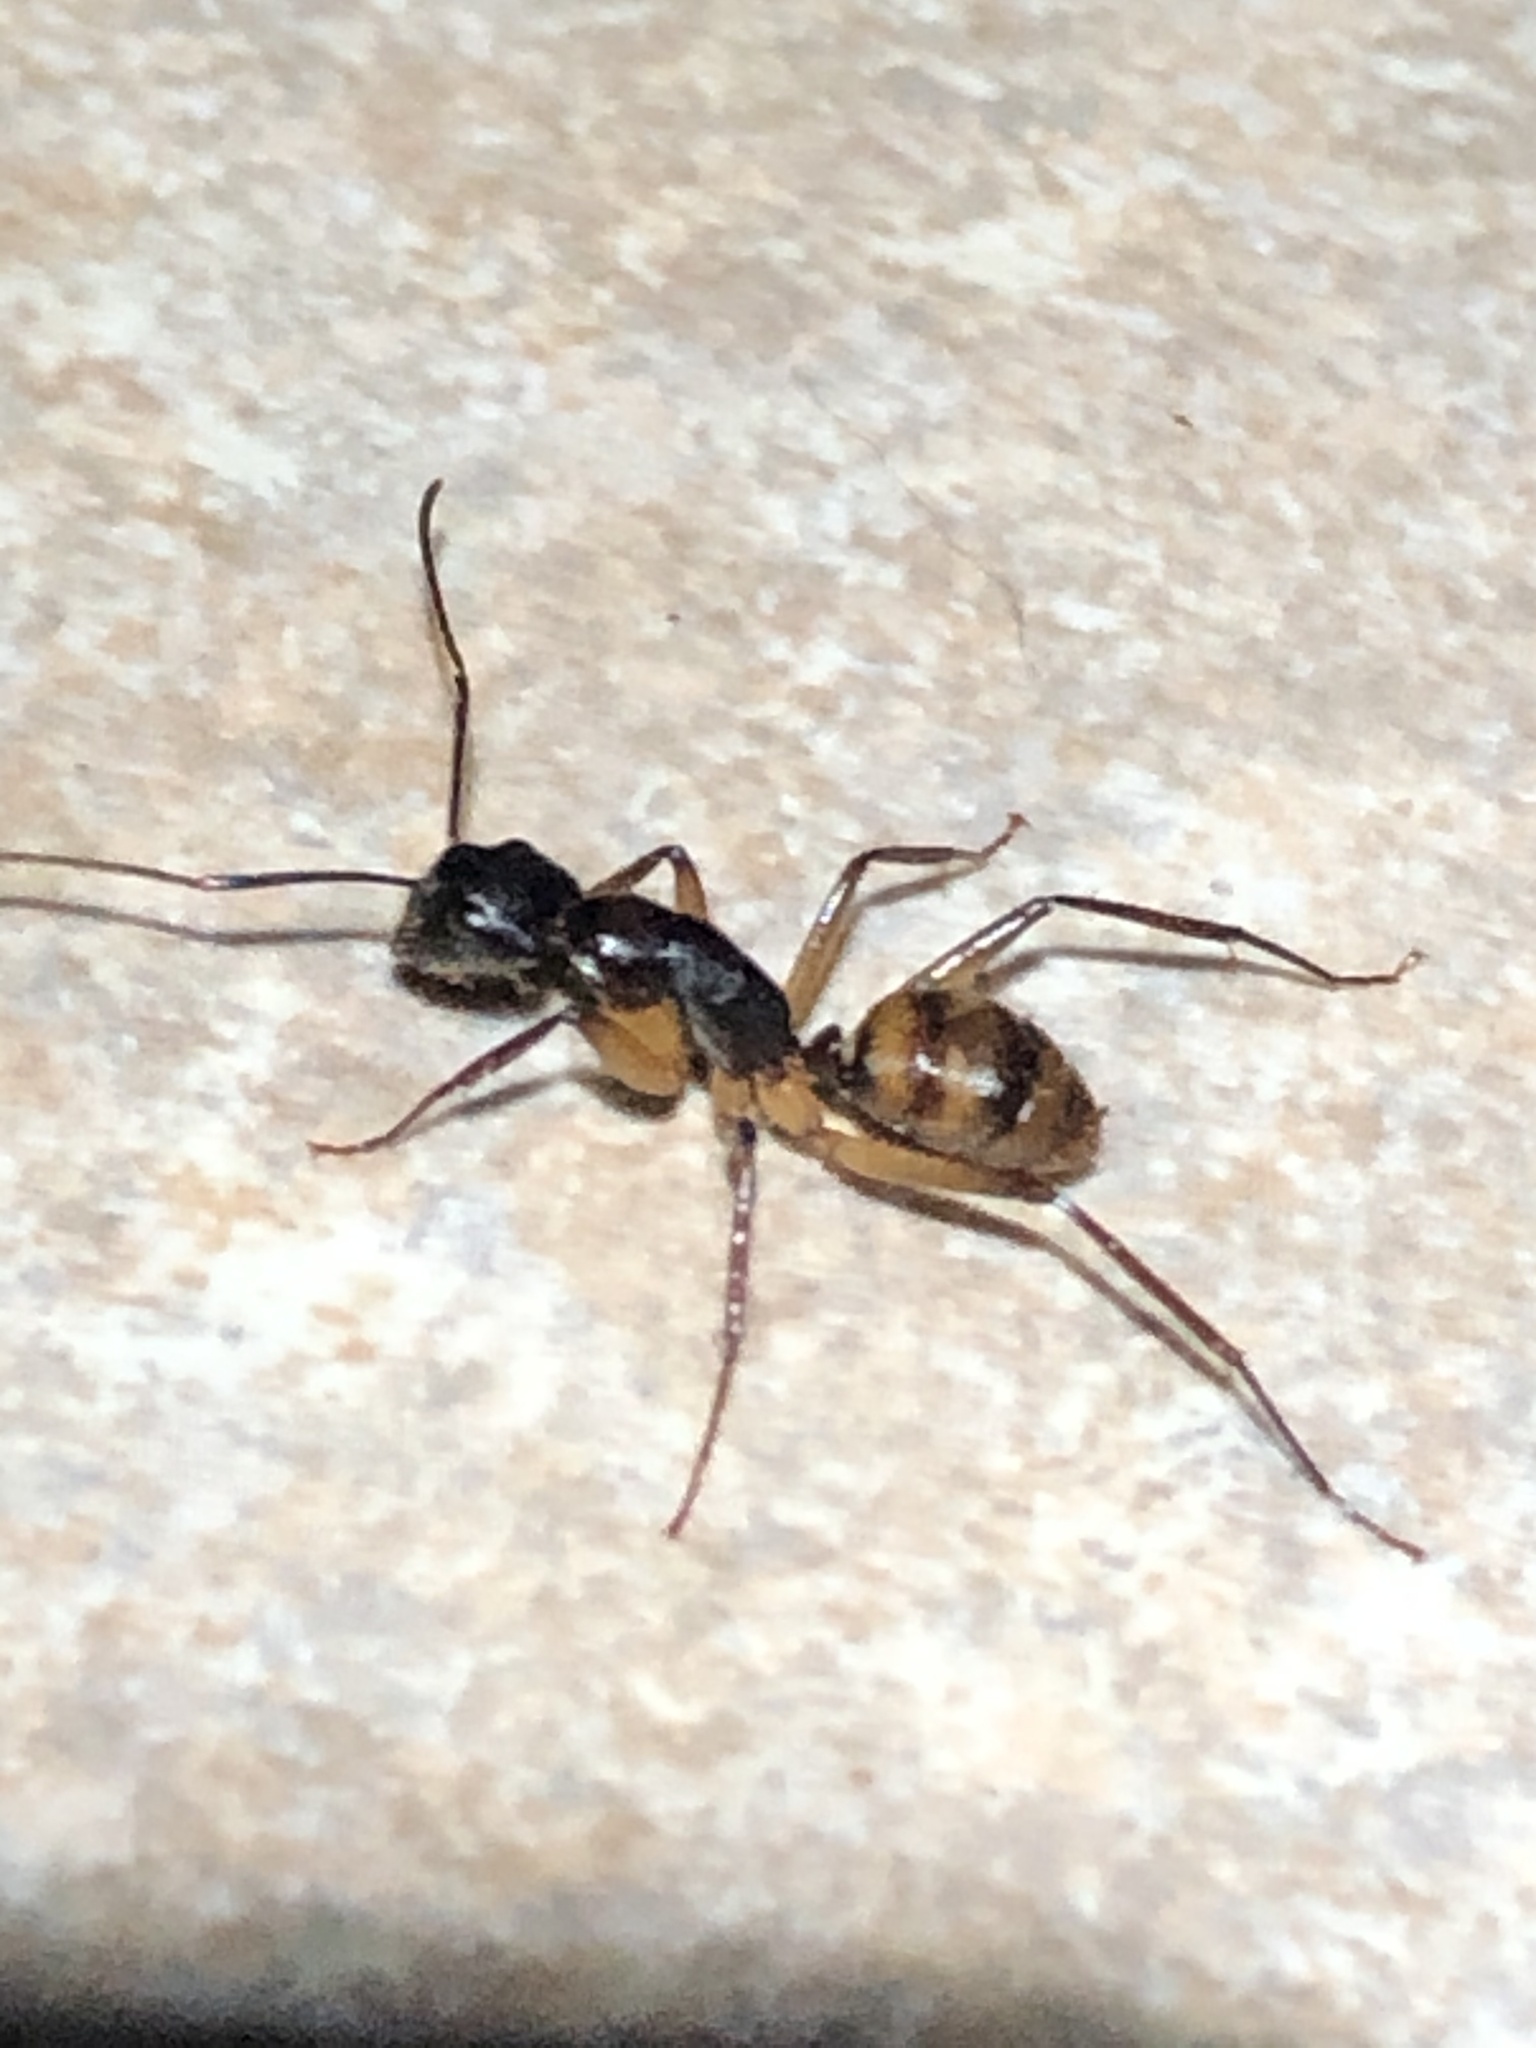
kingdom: Animalia
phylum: Arthropoda
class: Insecta
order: Hymenoptera
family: Formicidae
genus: Camponotus
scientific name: Camponotus atriceps
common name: Florida carpenter ant
